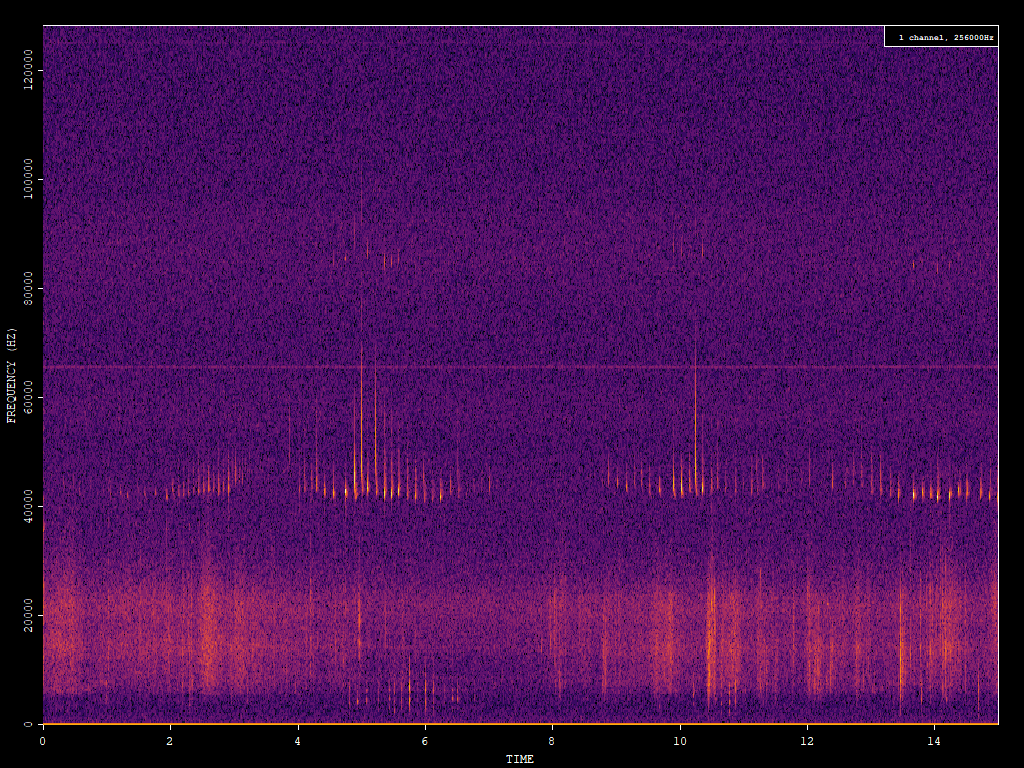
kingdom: Animalia
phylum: Chordata
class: Mammalia
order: Chiroptera
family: Vespertilionidae
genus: Pipistrellus
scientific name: Pipistrellus pipistrellus
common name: Common pipistrelle
